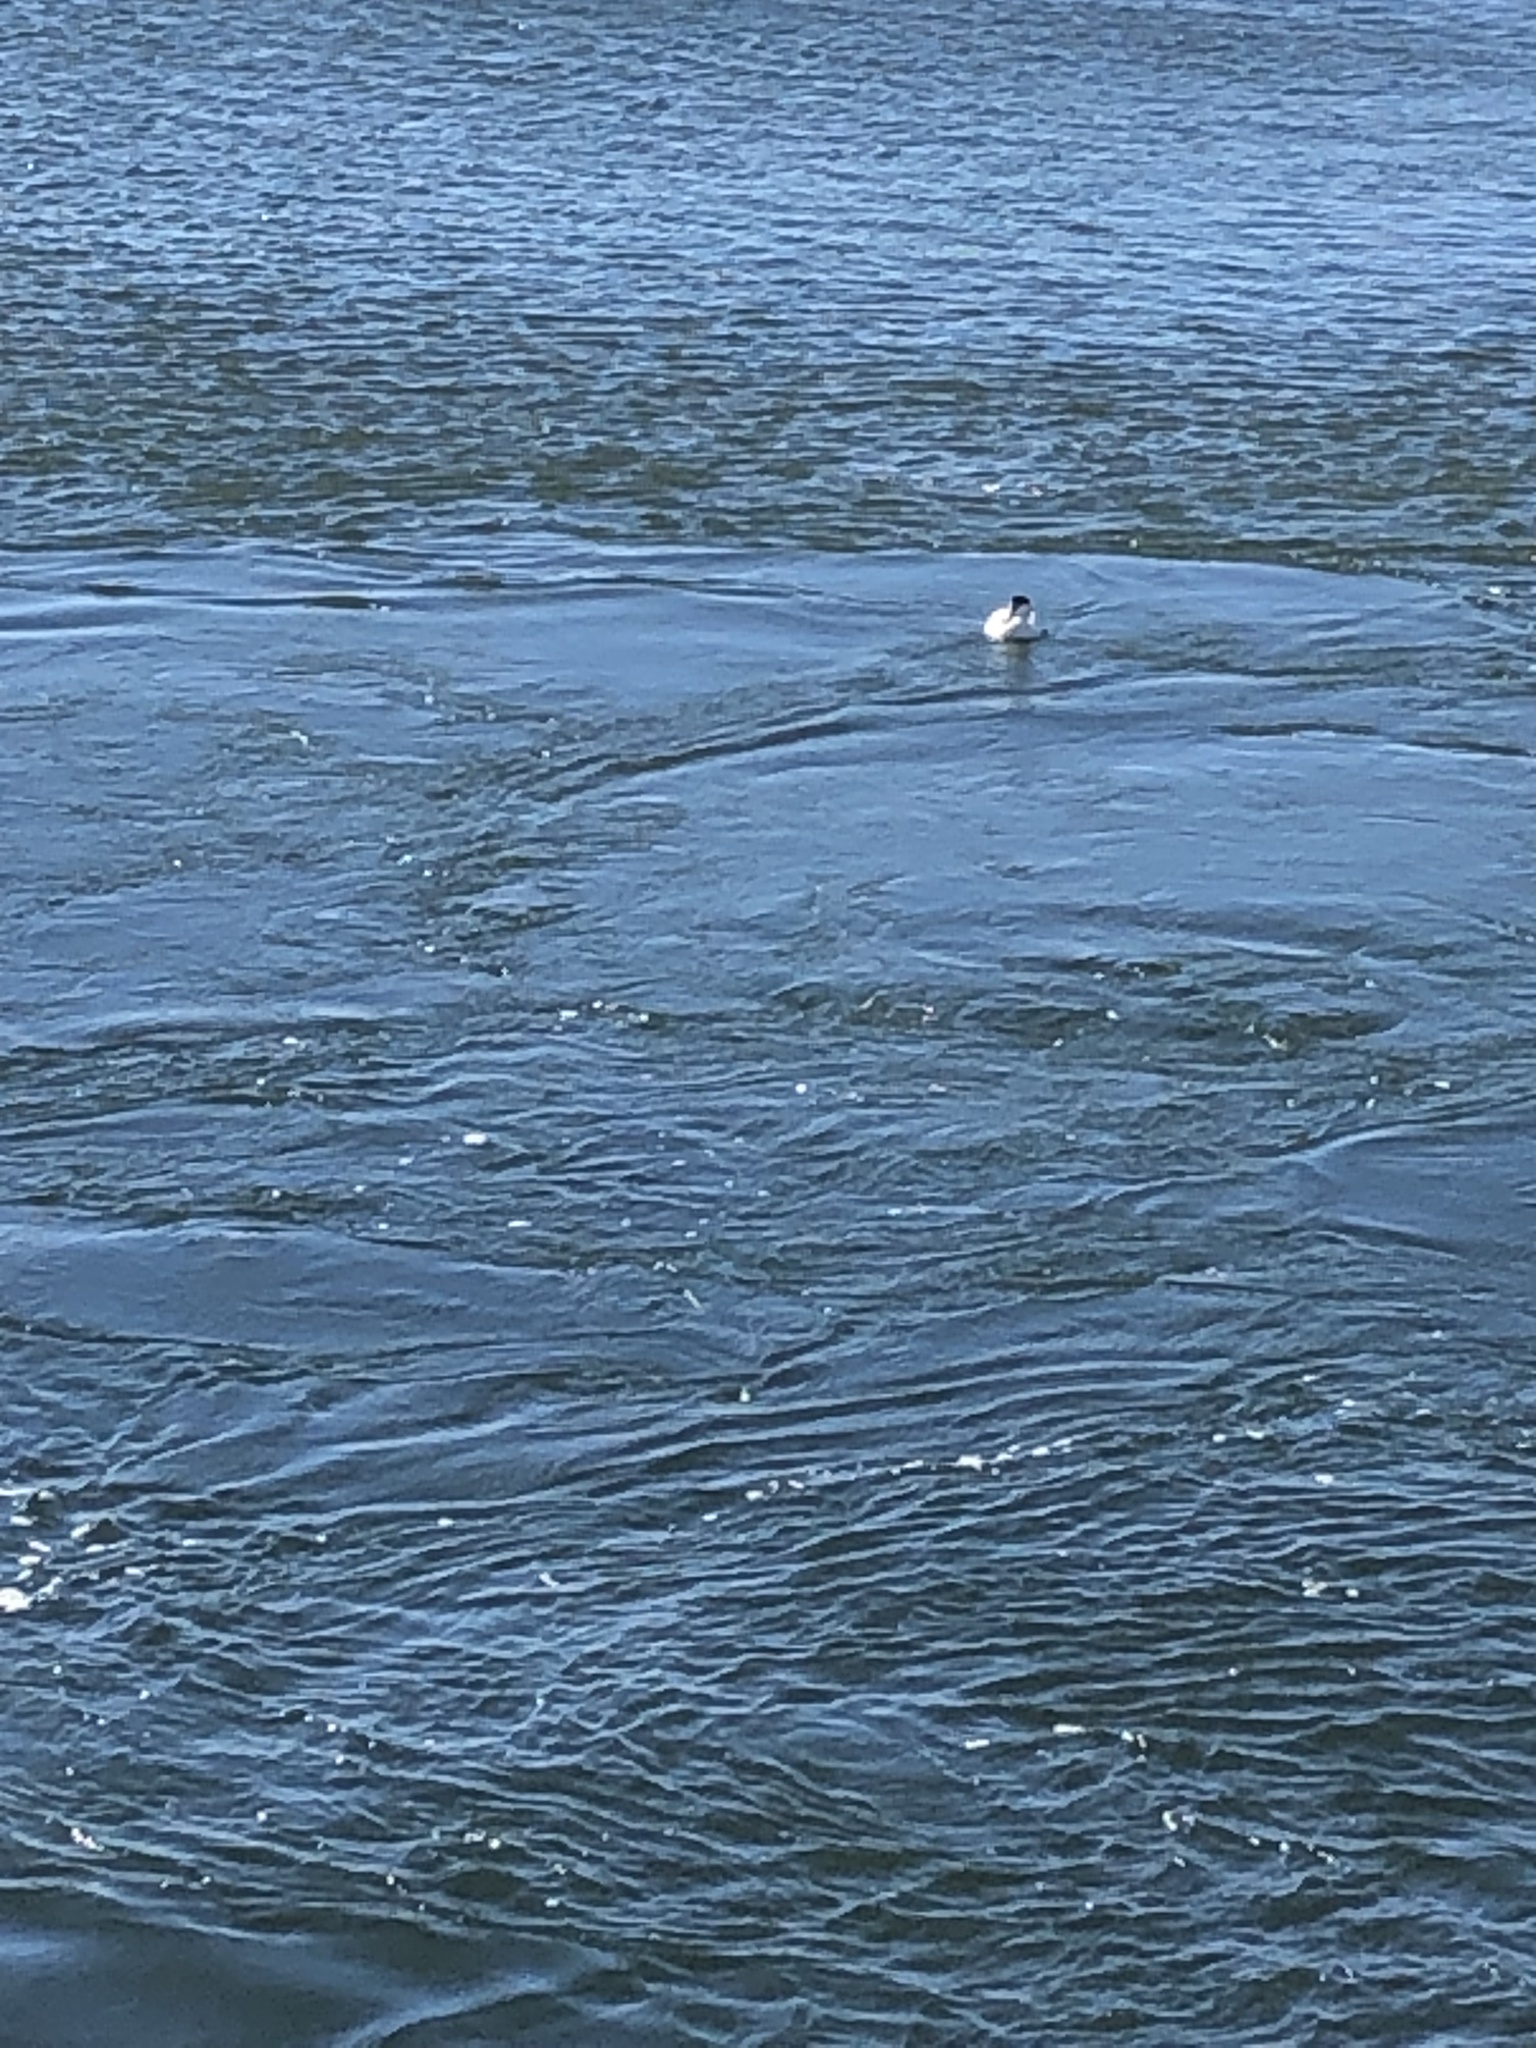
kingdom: Animalia
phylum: Chordata
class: Aves
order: Anseriformes
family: Anatidae
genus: Somateria
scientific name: Somateria mollissima
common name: Common eider
